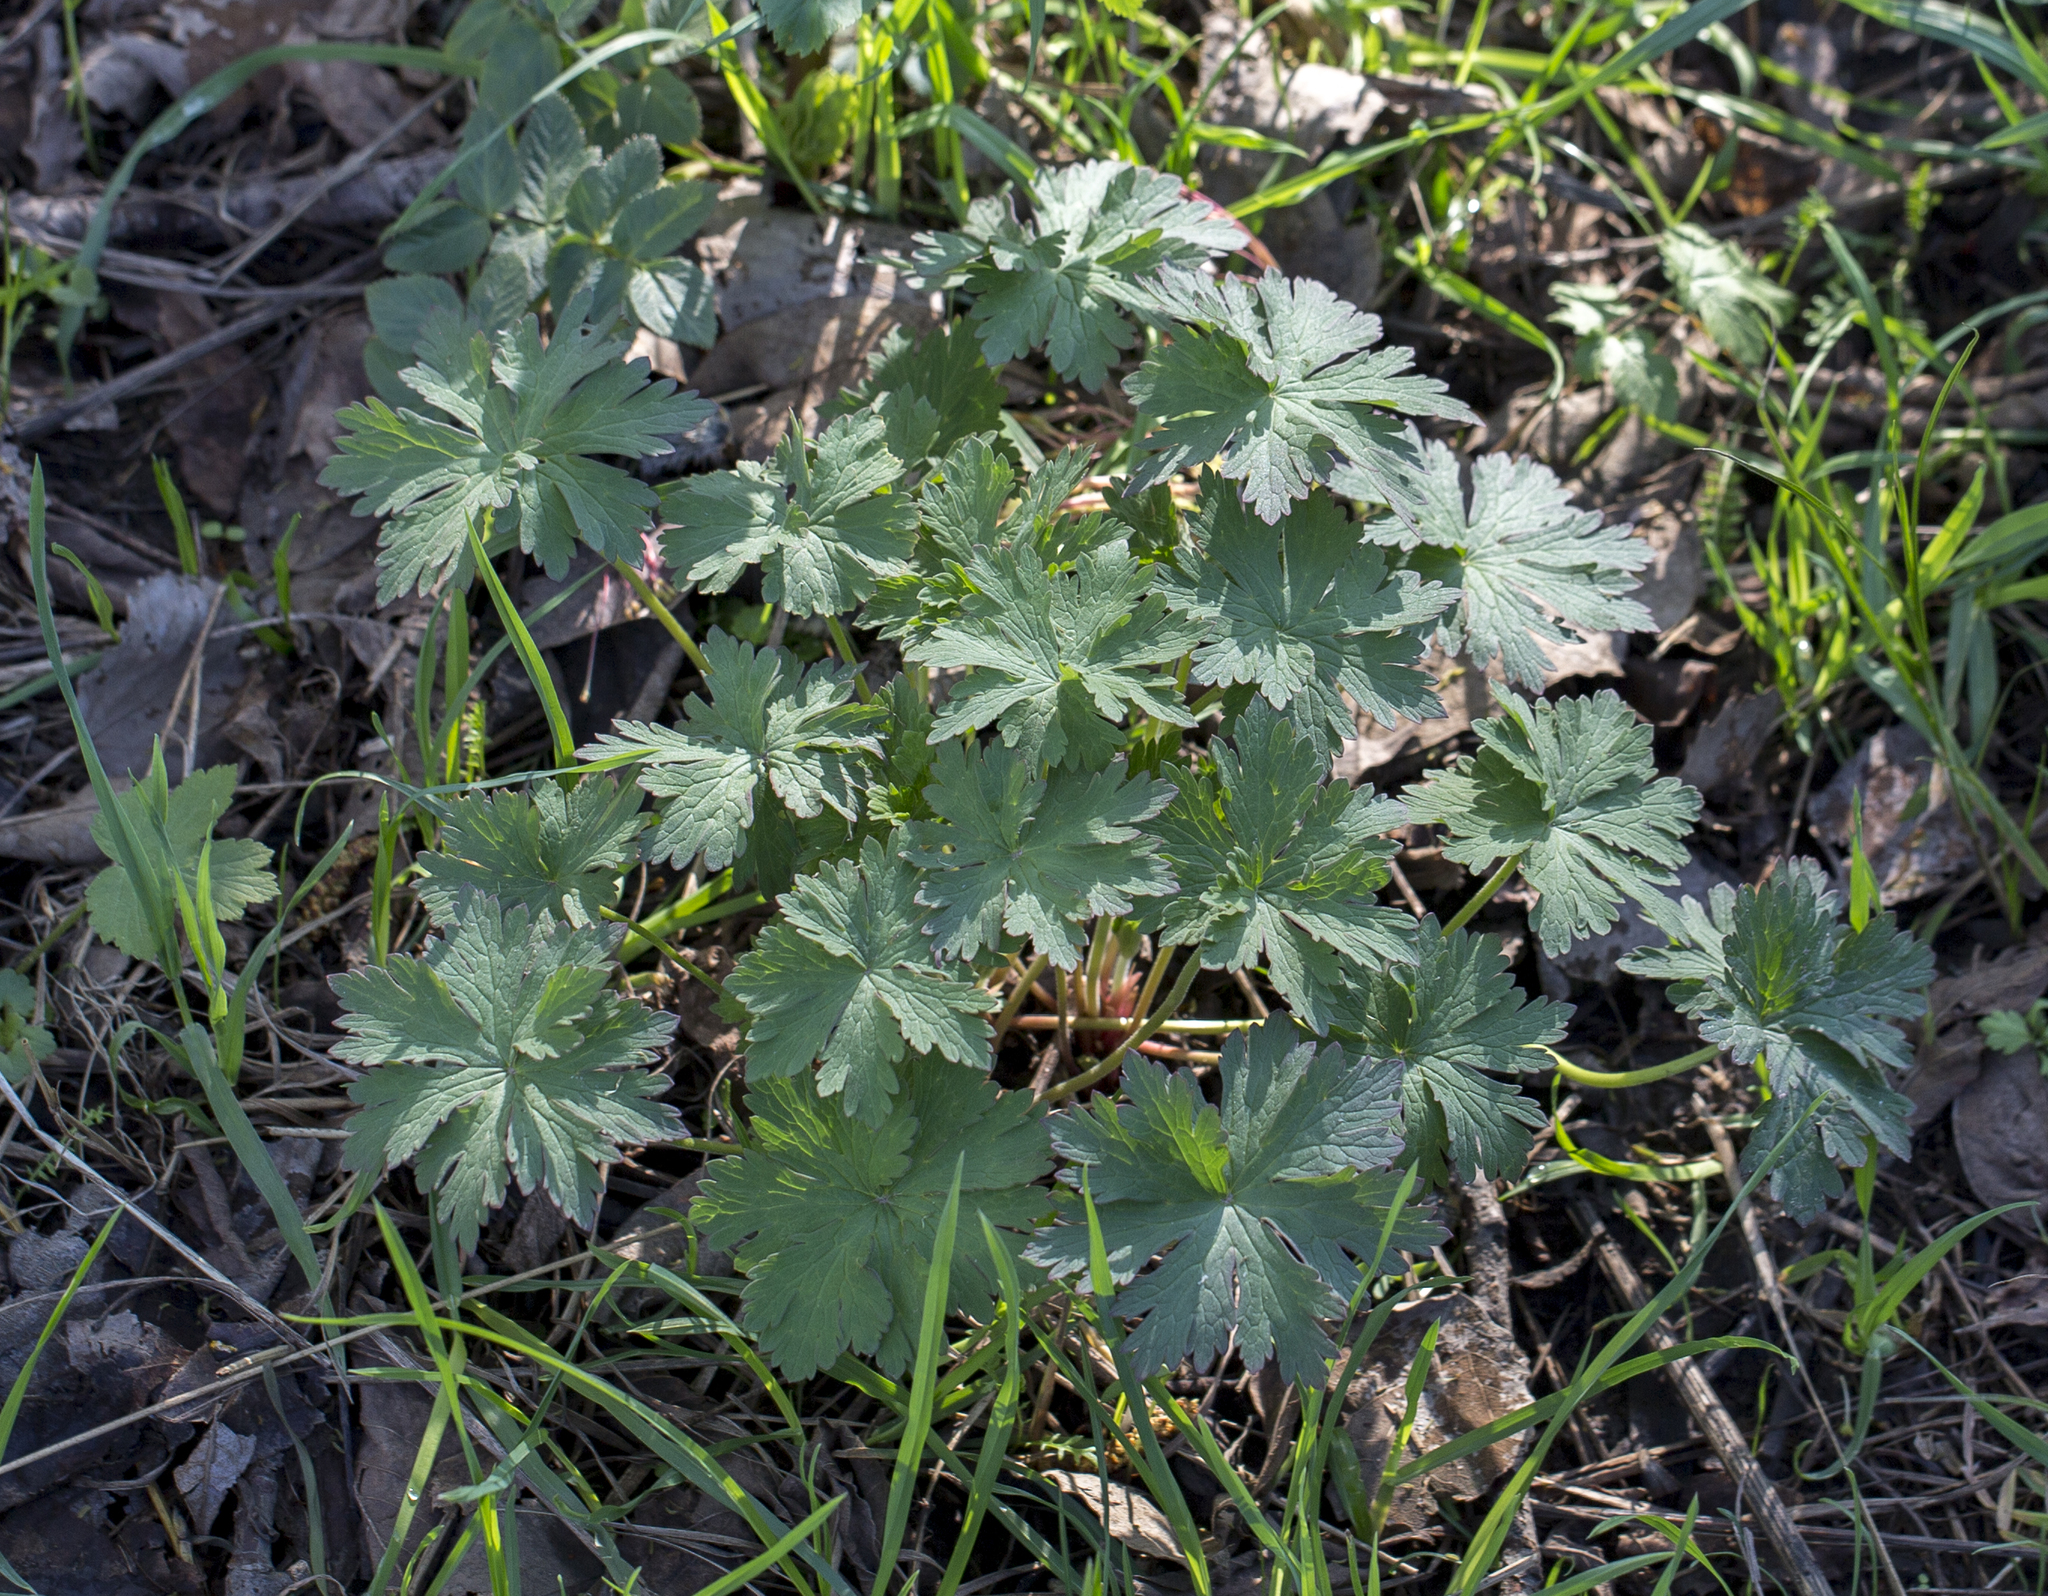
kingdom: Plantae
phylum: Tracheophyta
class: Magnoliopsida
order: Geraniales
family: Geraniaceae
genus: Geranium
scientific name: Geranium pratense
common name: Meadow crane's-bill
